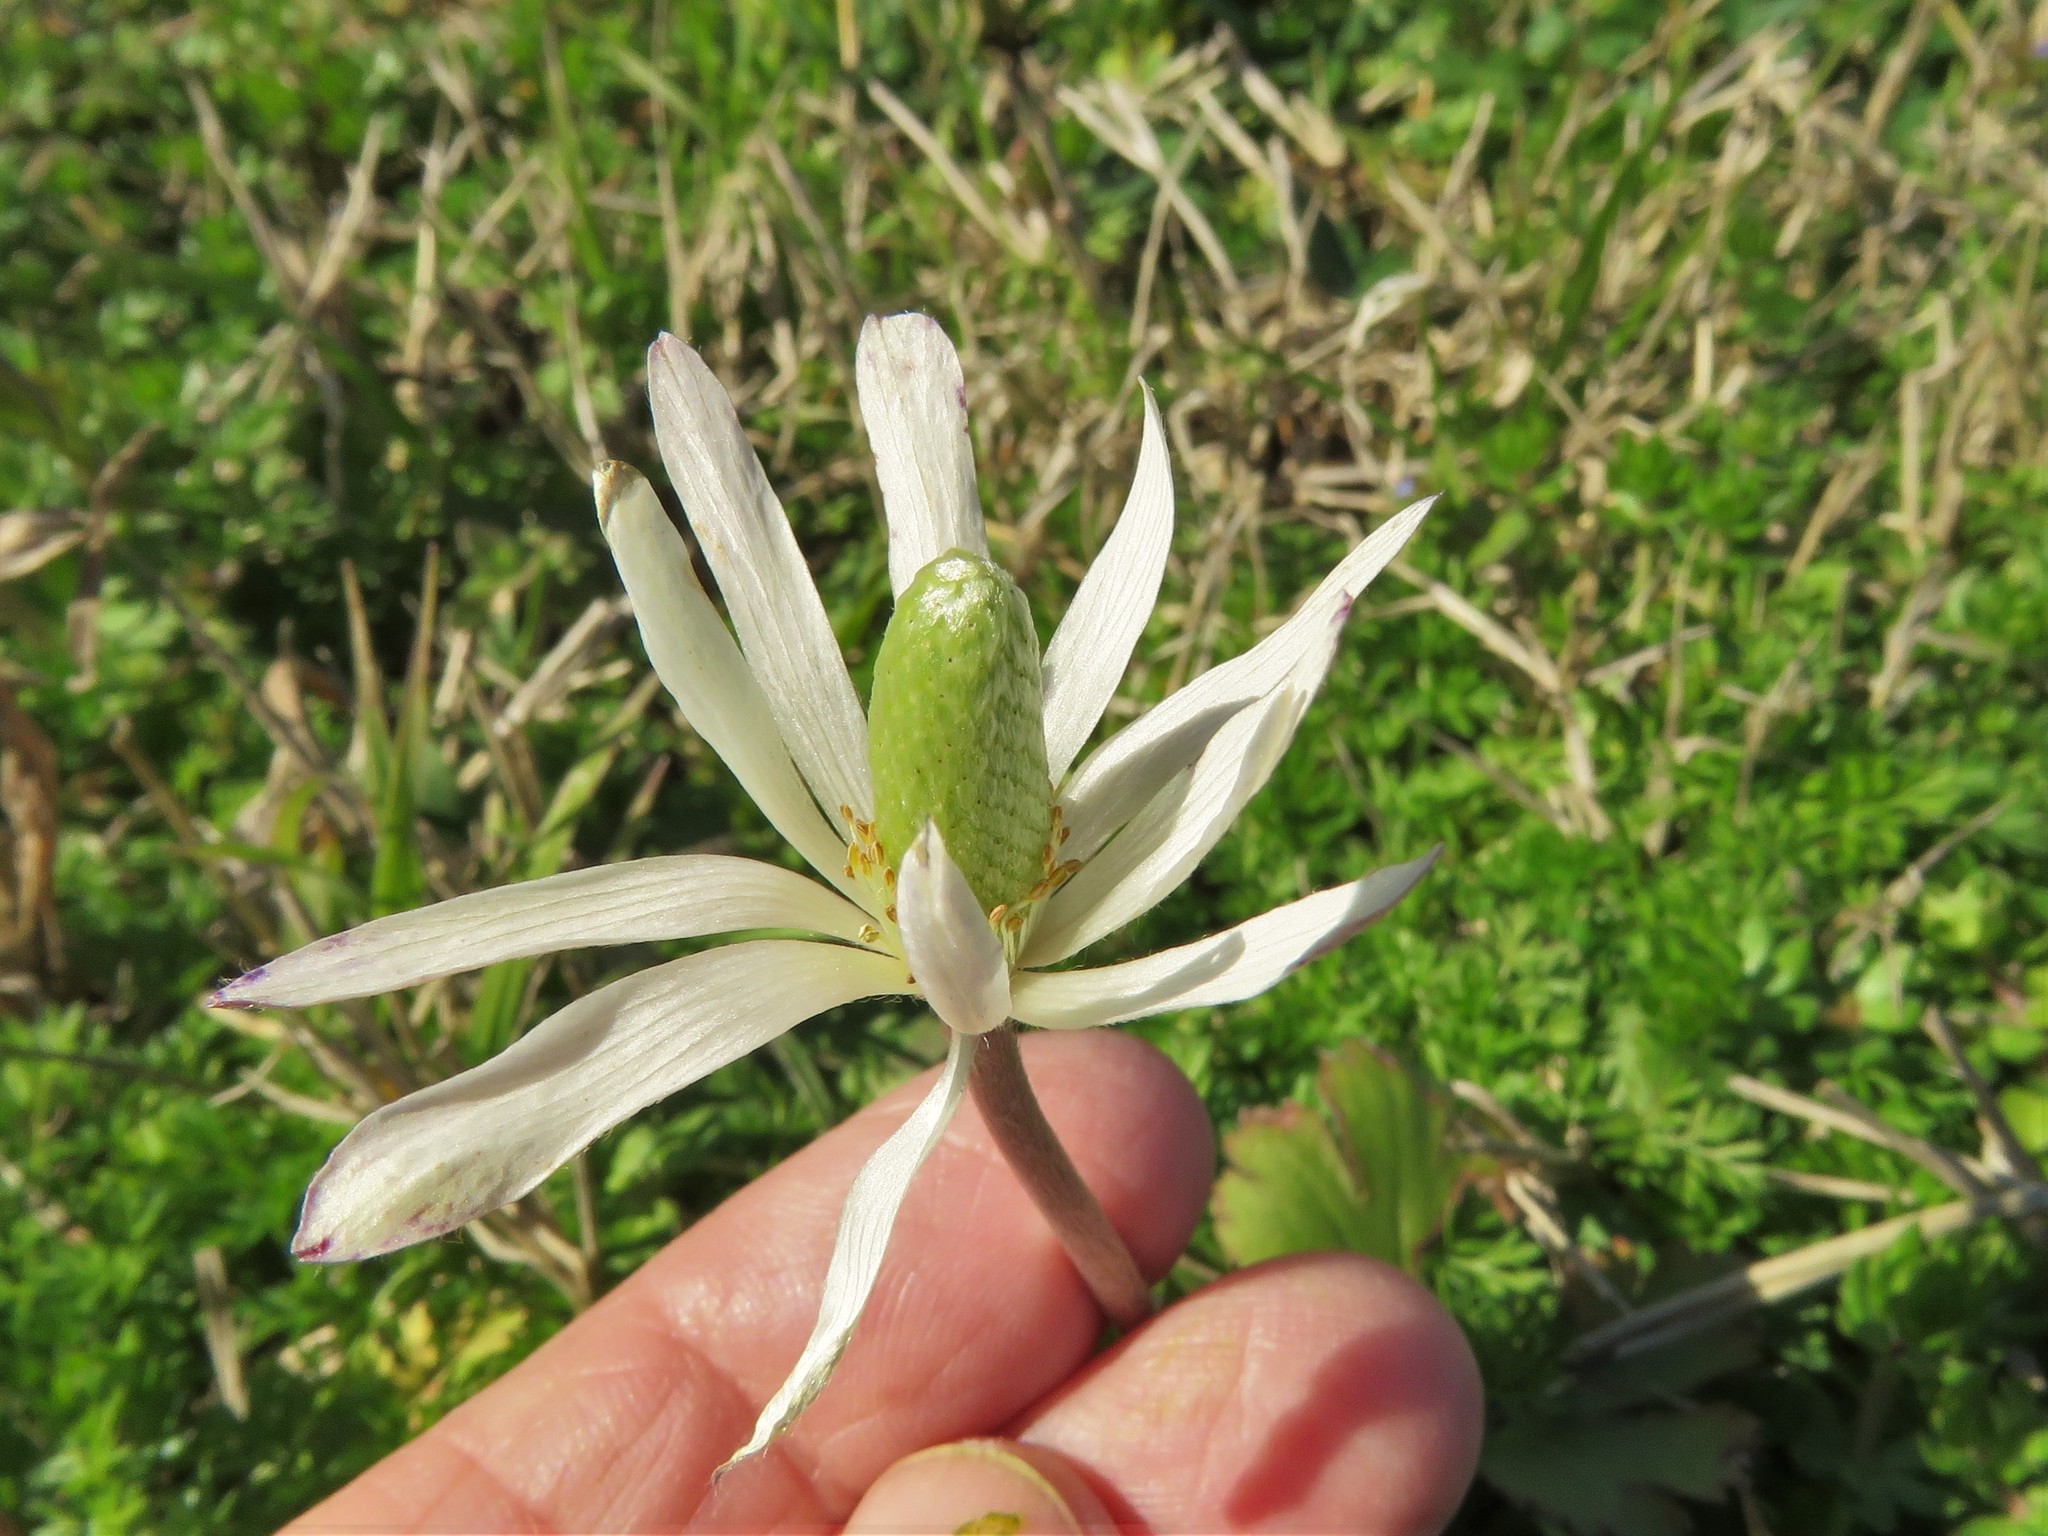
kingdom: Plantae
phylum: Tracheophyta
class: Magnoliopsida
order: Ranunculales
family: Ranunculaceae
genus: Anemone
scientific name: Anemone berlandieri
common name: Ten-petal anemone
